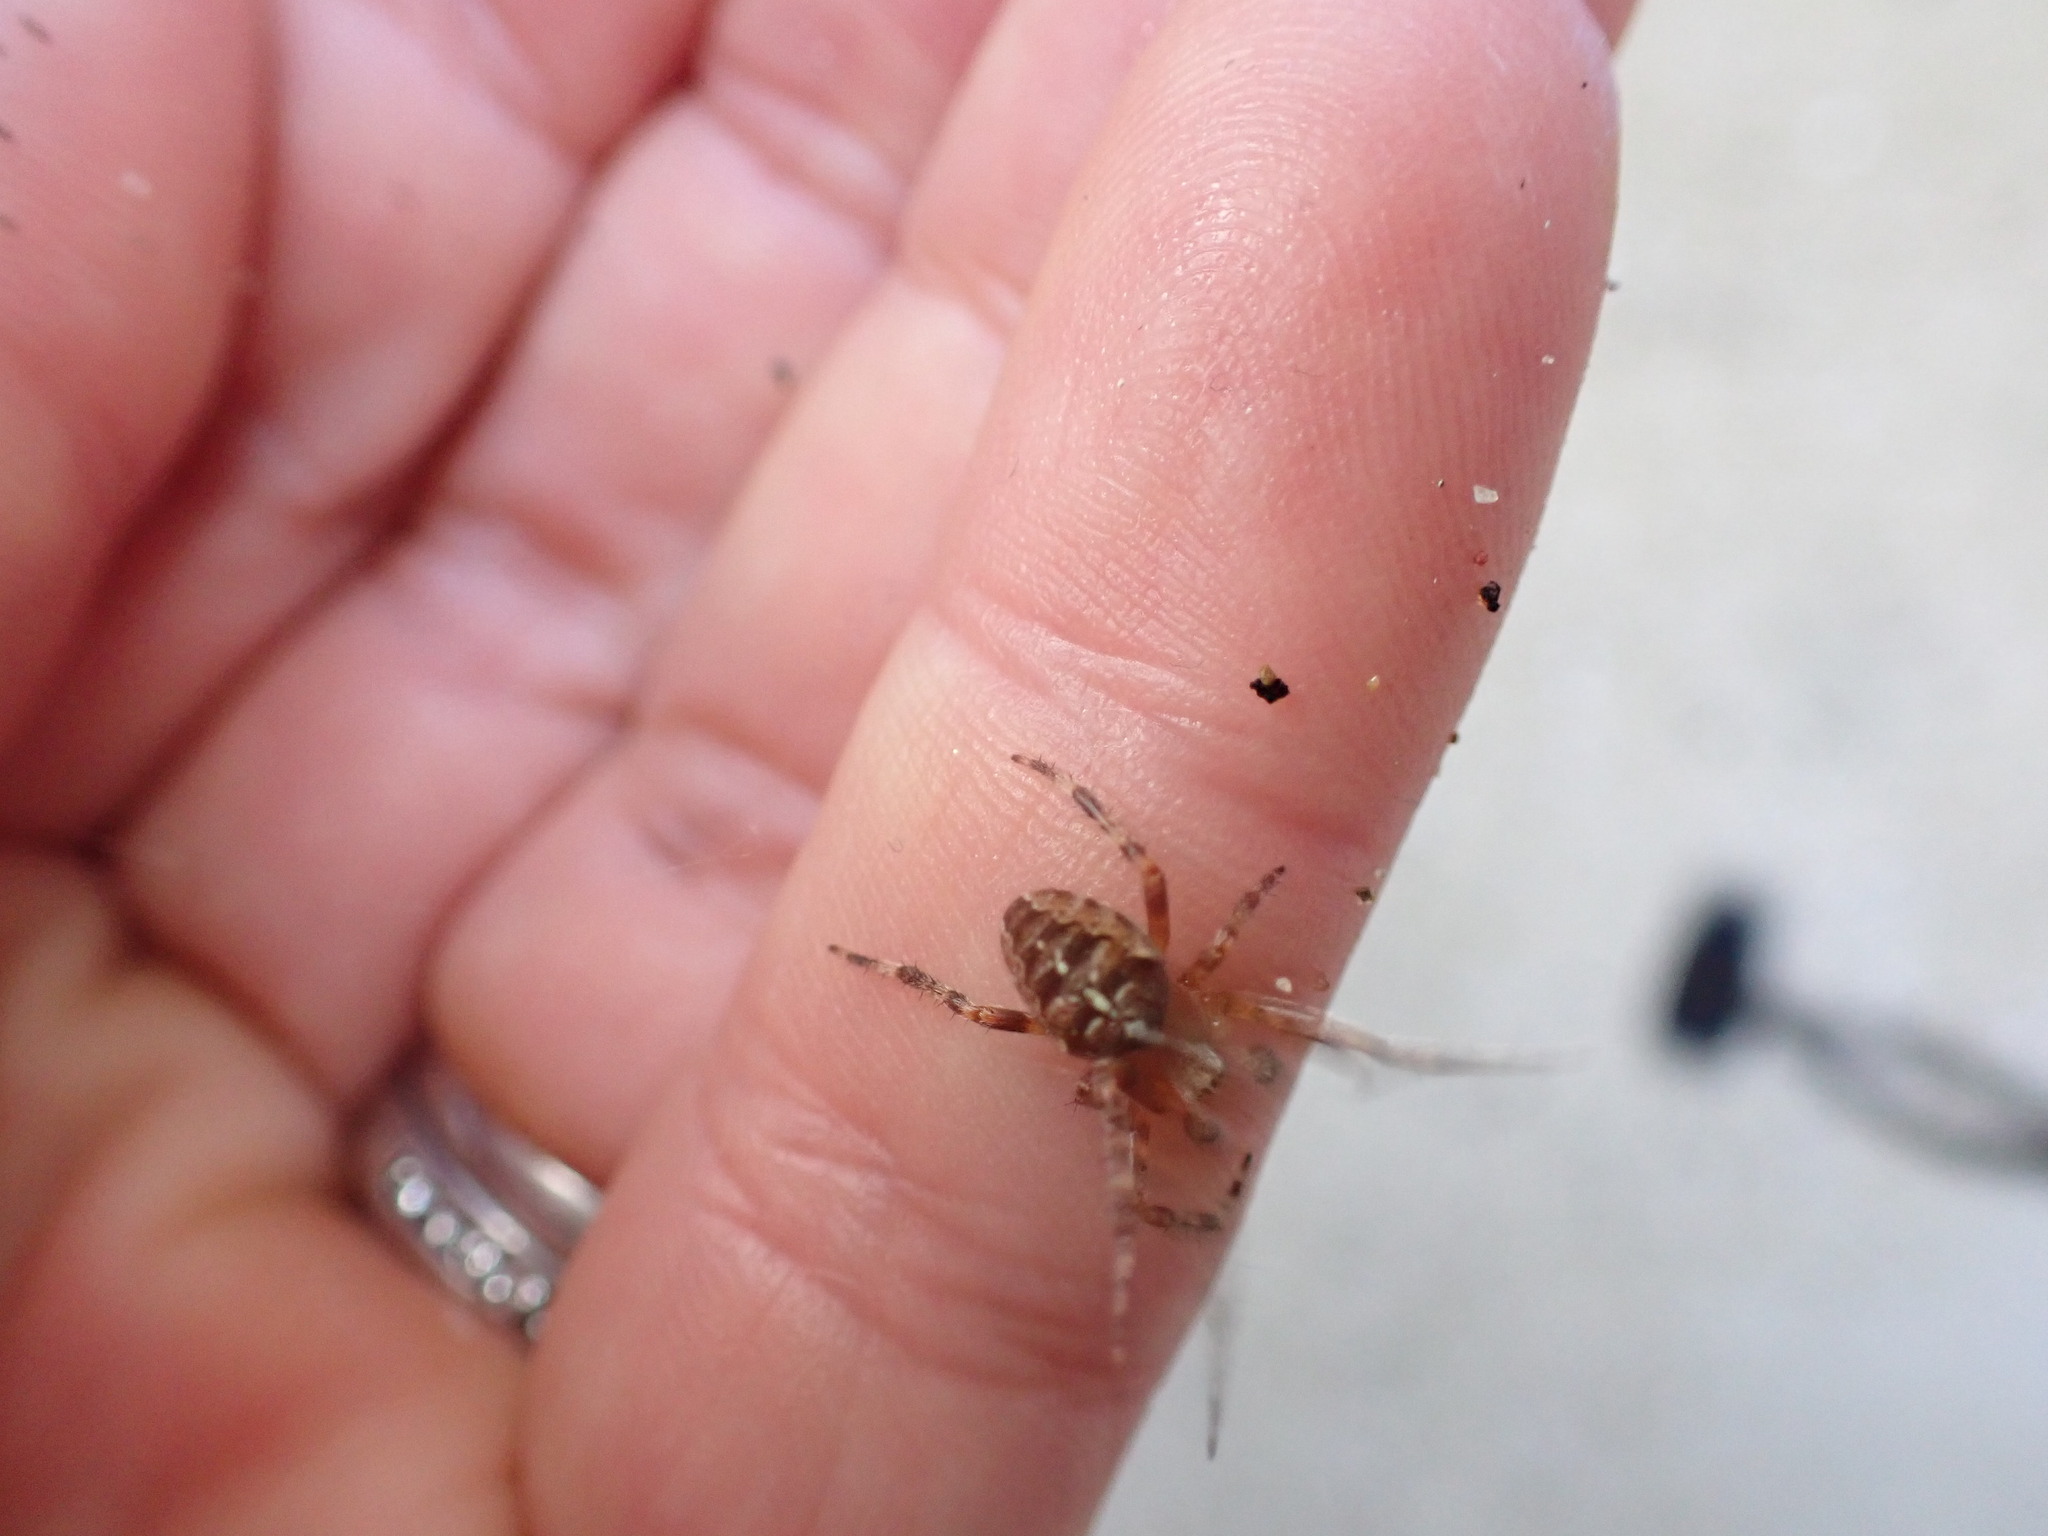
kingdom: Animalia
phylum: Arthropoda
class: Arachnida
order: Araneae
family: Araneidae
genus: Araneus
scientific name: Araneus diadematus
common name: Cross orbweaver
